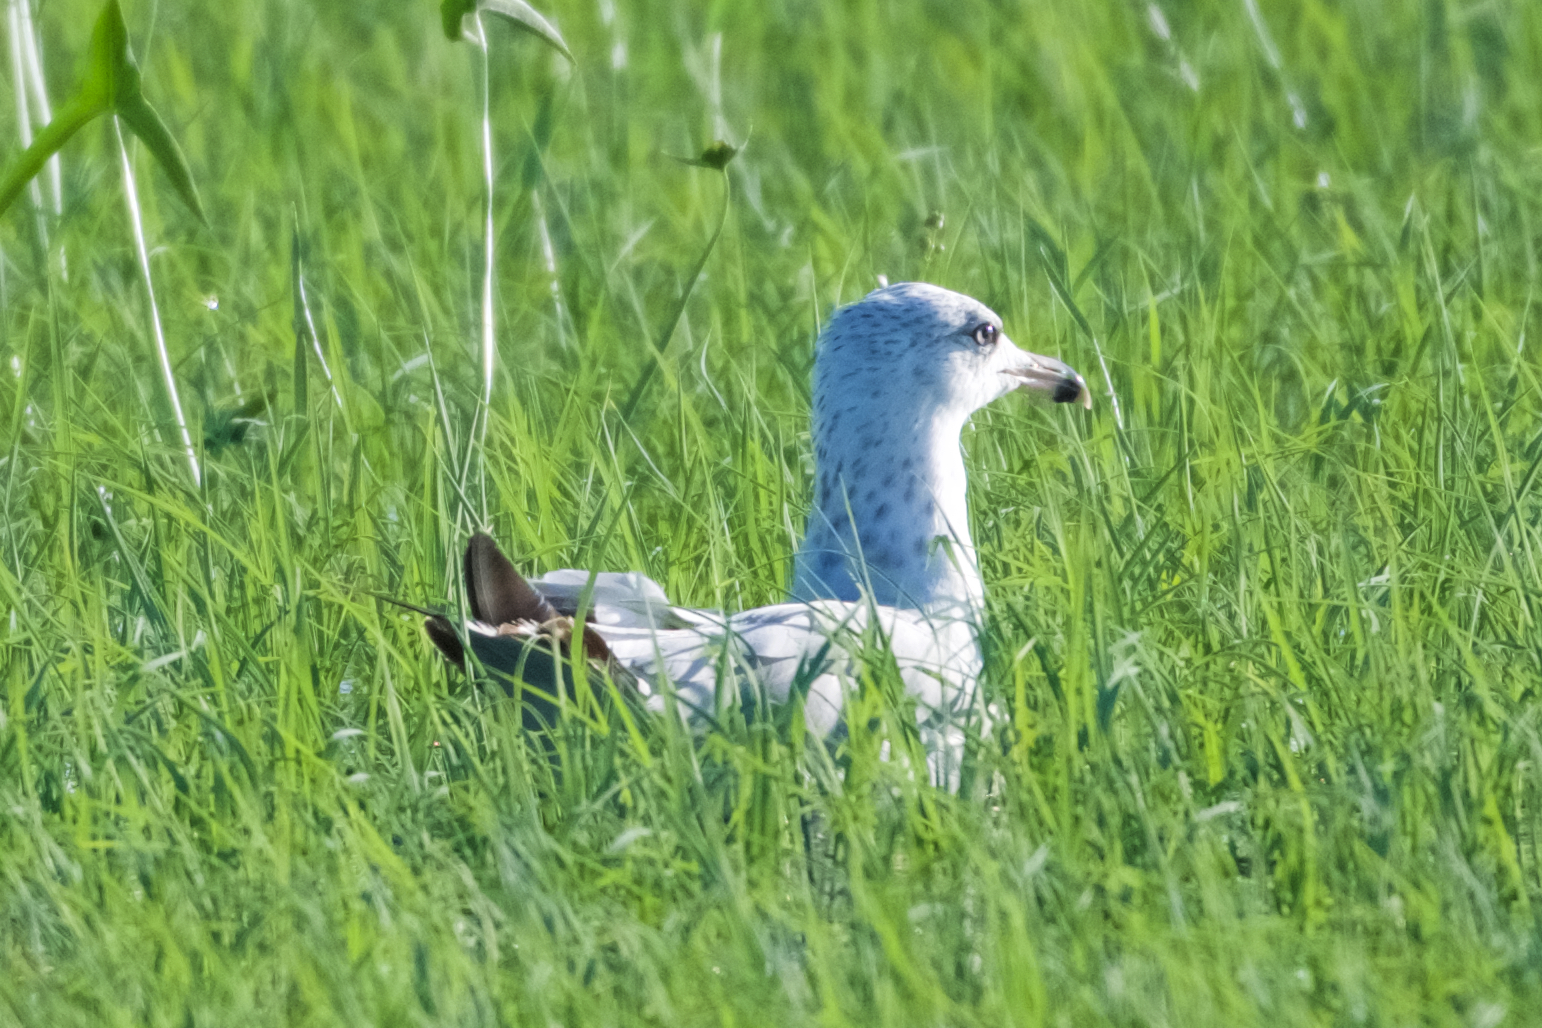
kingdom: Animalia
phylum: Chordata
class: Aves
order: Charadriiformes
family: Laridae
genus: Larus
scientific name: Larus delawarensis
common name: Ring-billed gull
